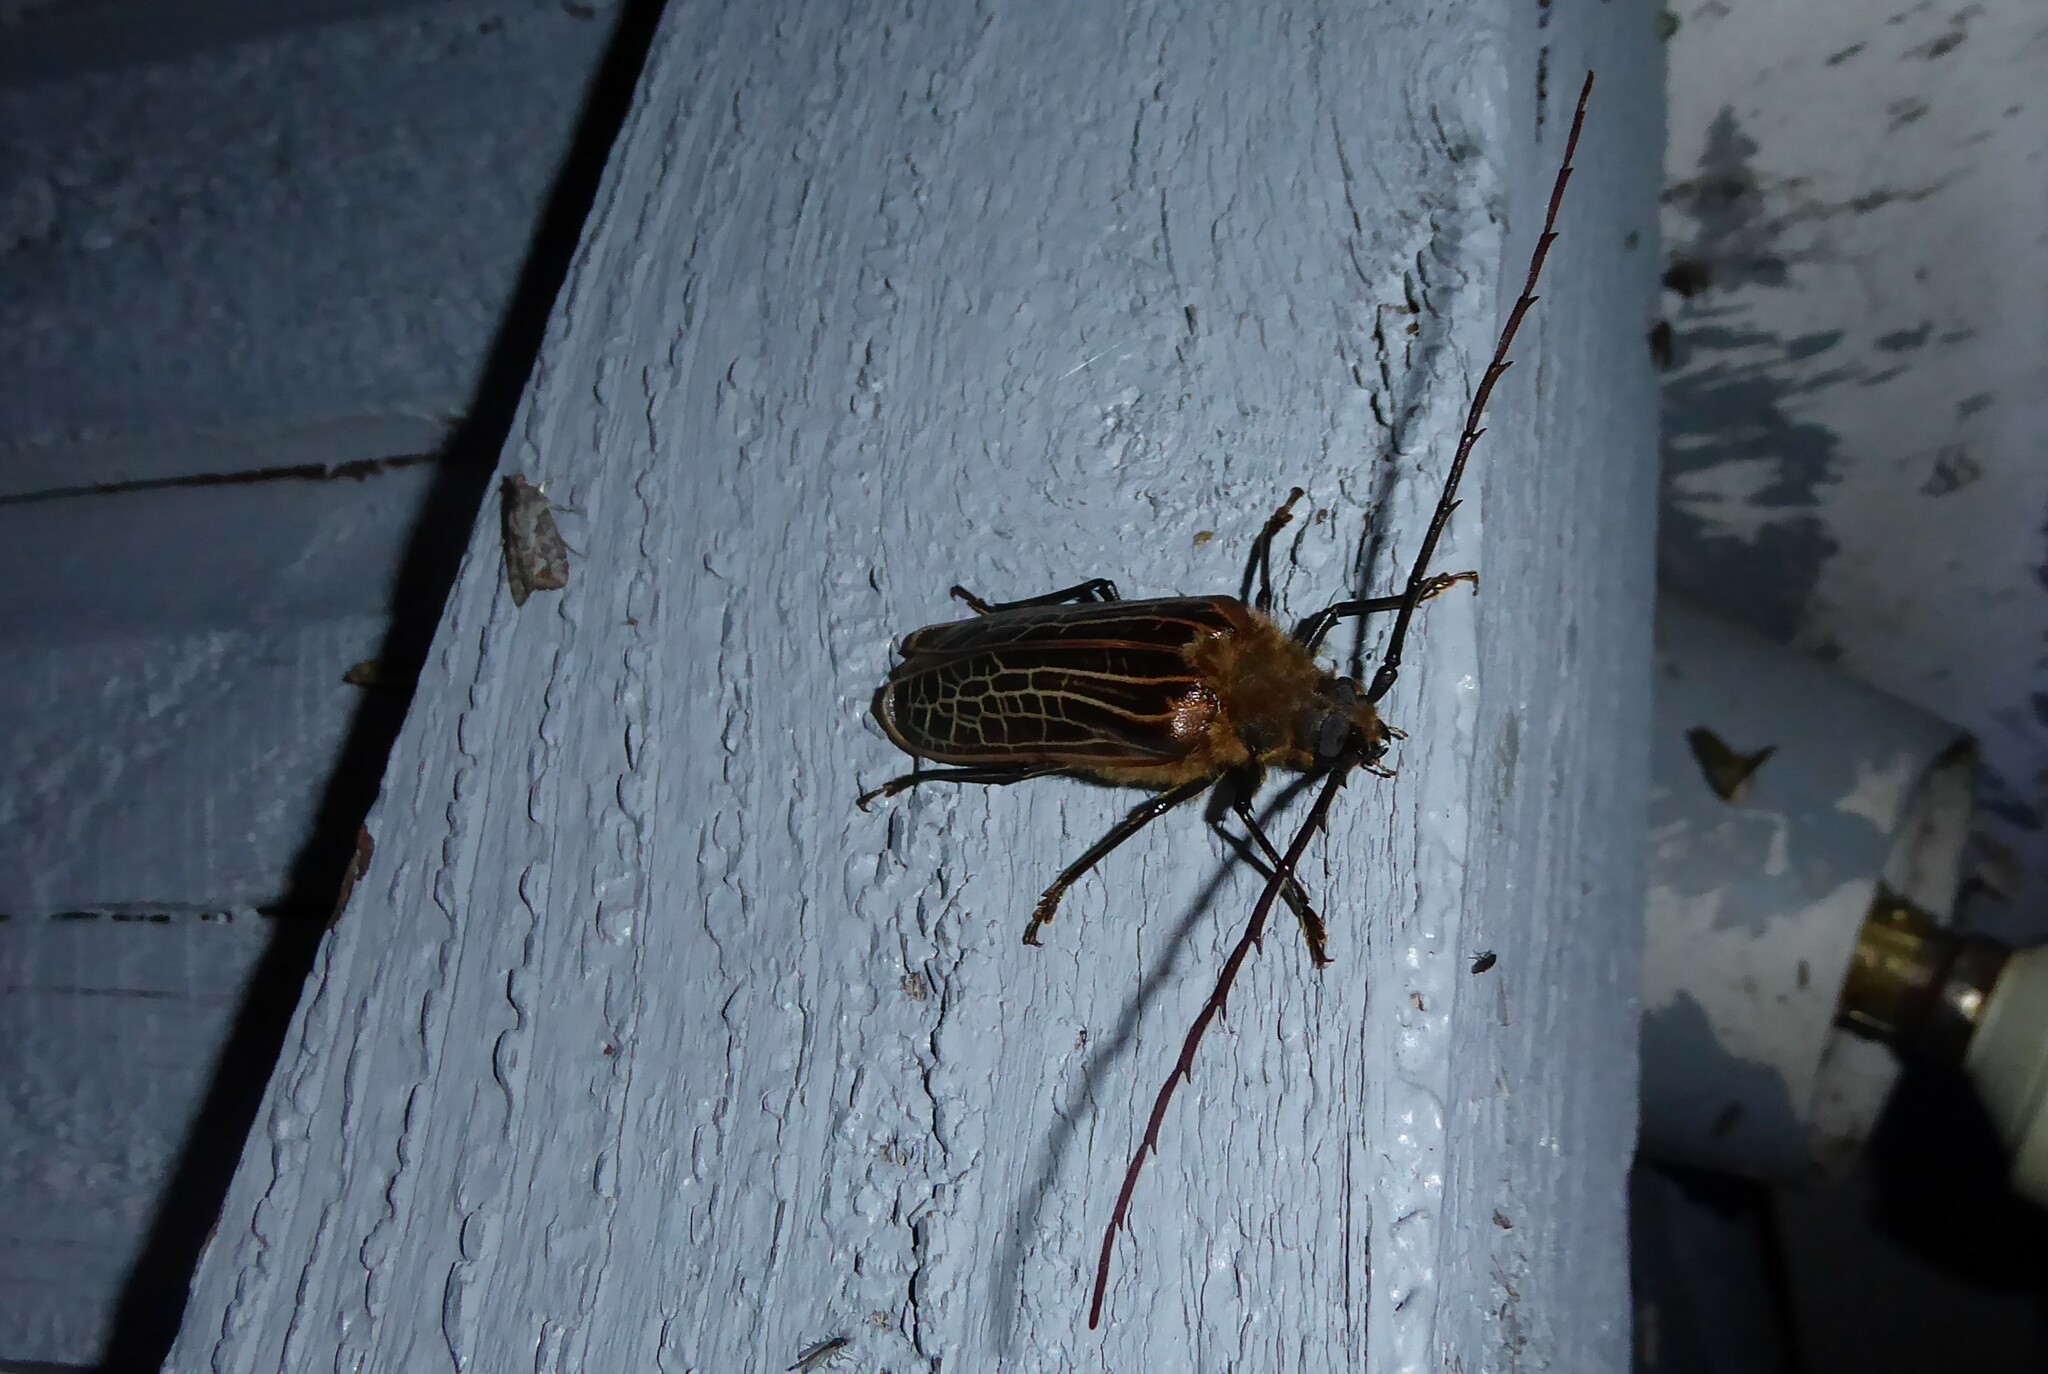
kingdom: Animalia
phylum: Arthropoda
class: Insecta
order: Coleoptera
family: Cerambycidae
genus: Prionoplus
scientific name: Prionoplus reticularis
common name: Huhu beetle
